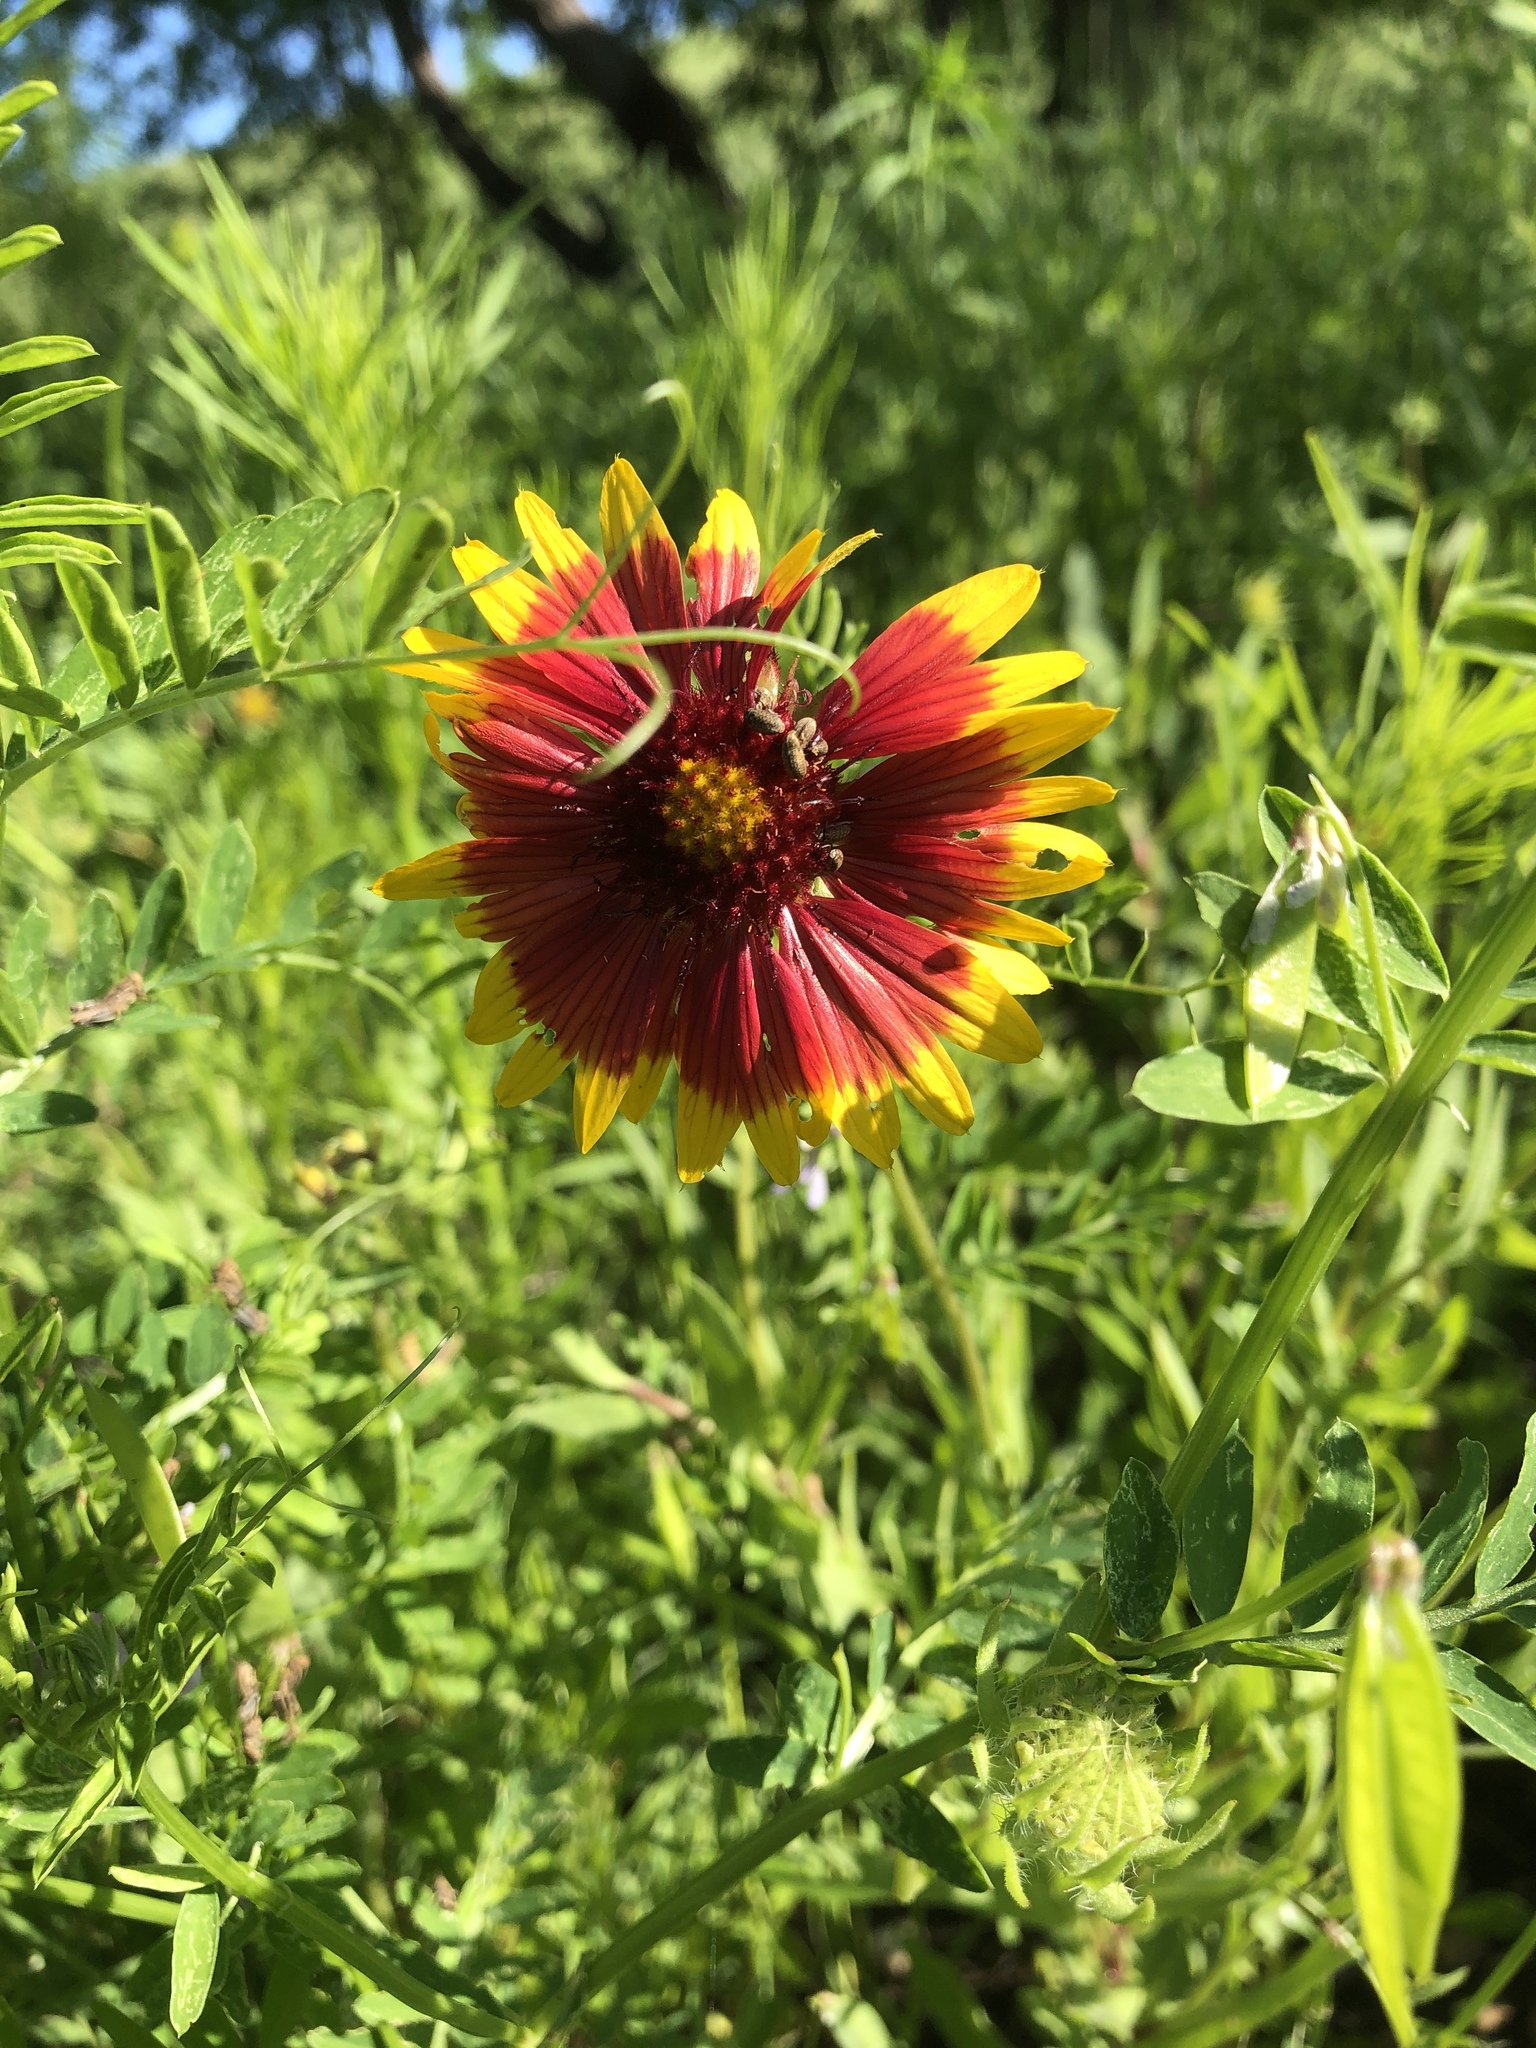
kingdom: Plantae
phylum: Tracheophyta
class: Magnoliopsida
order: Asterales
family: Asteraceae
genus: Gaillardia
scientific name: Gaillardia pulchella
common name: Firewheel
